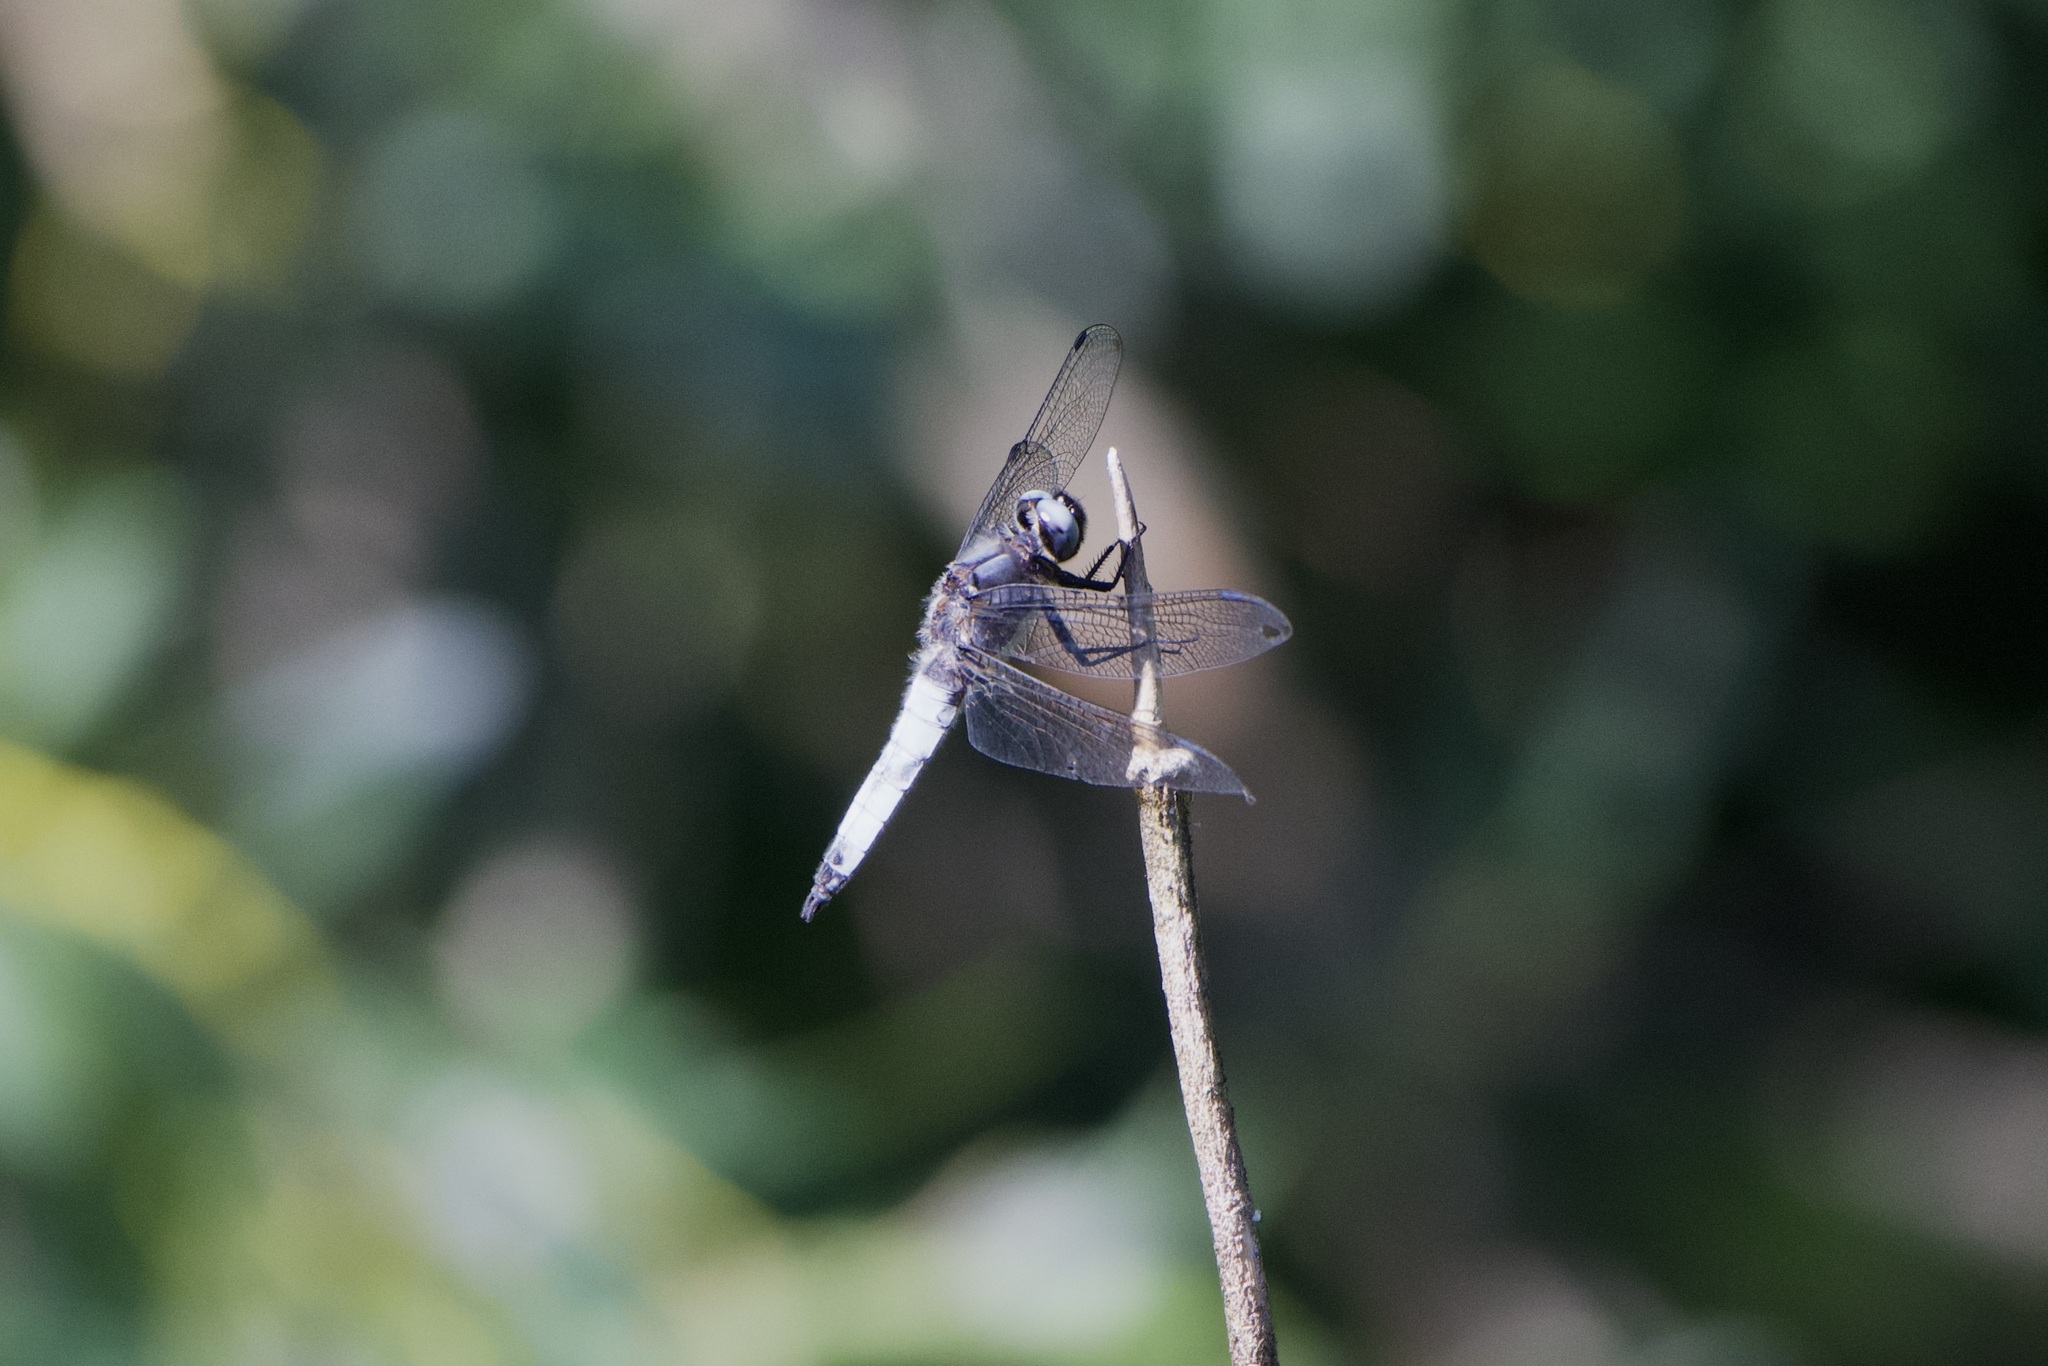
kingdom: Animalia
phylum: Arthropoda
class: Insecta
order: Odonata
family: Libellulidae
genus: Libellula
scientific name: Libellula fulva
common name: Blue chaser
